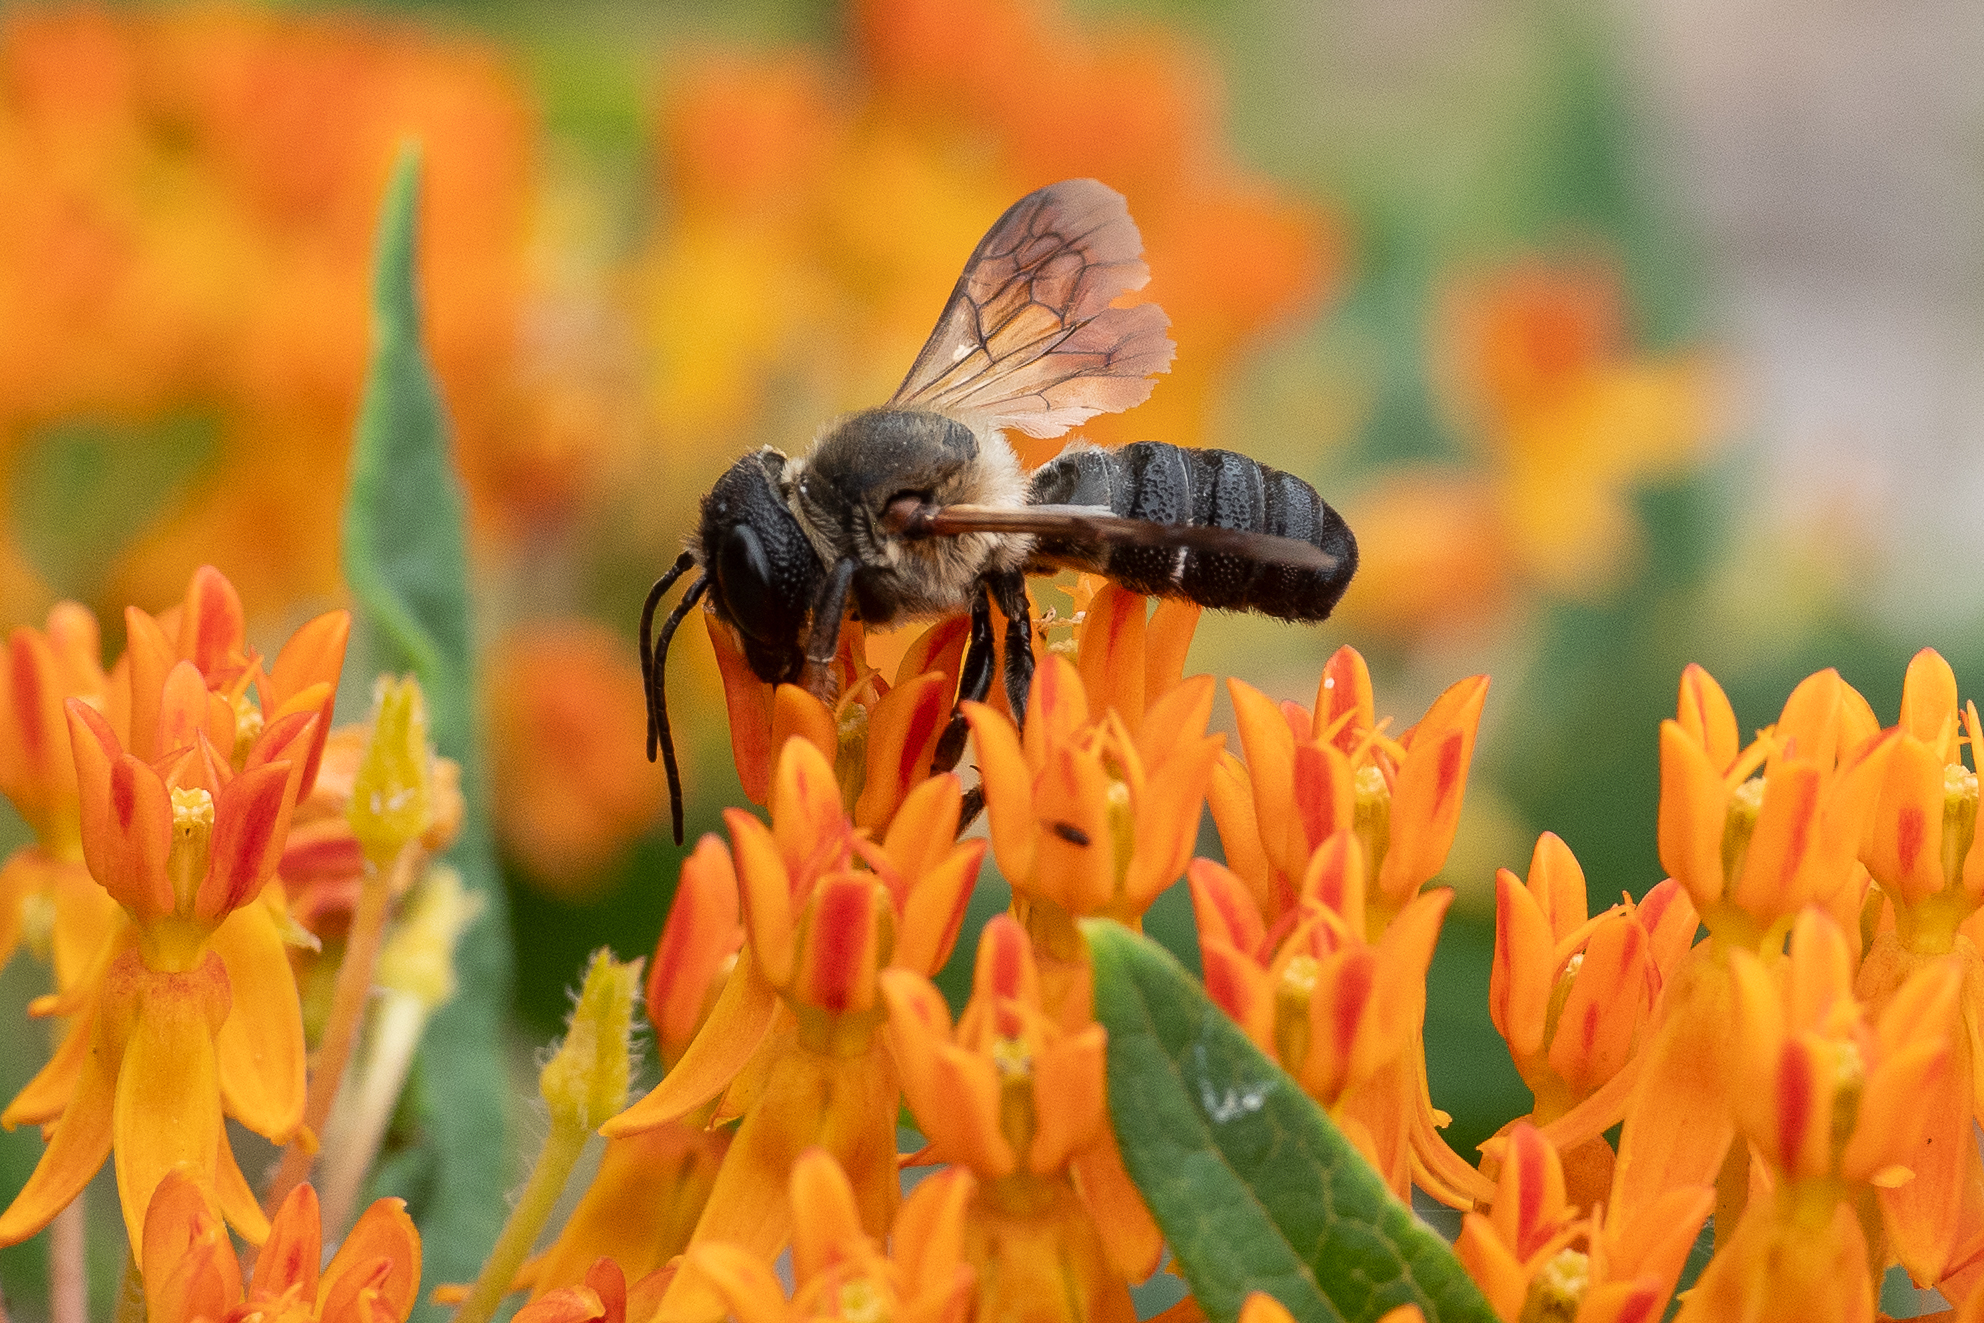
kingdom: Animalia
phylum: Arthropoda
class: Insecta
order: Hymenoptera
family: Megachilidae
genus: Megachile
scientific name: Megachile sculpturalis
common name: Sculptured resin bee
